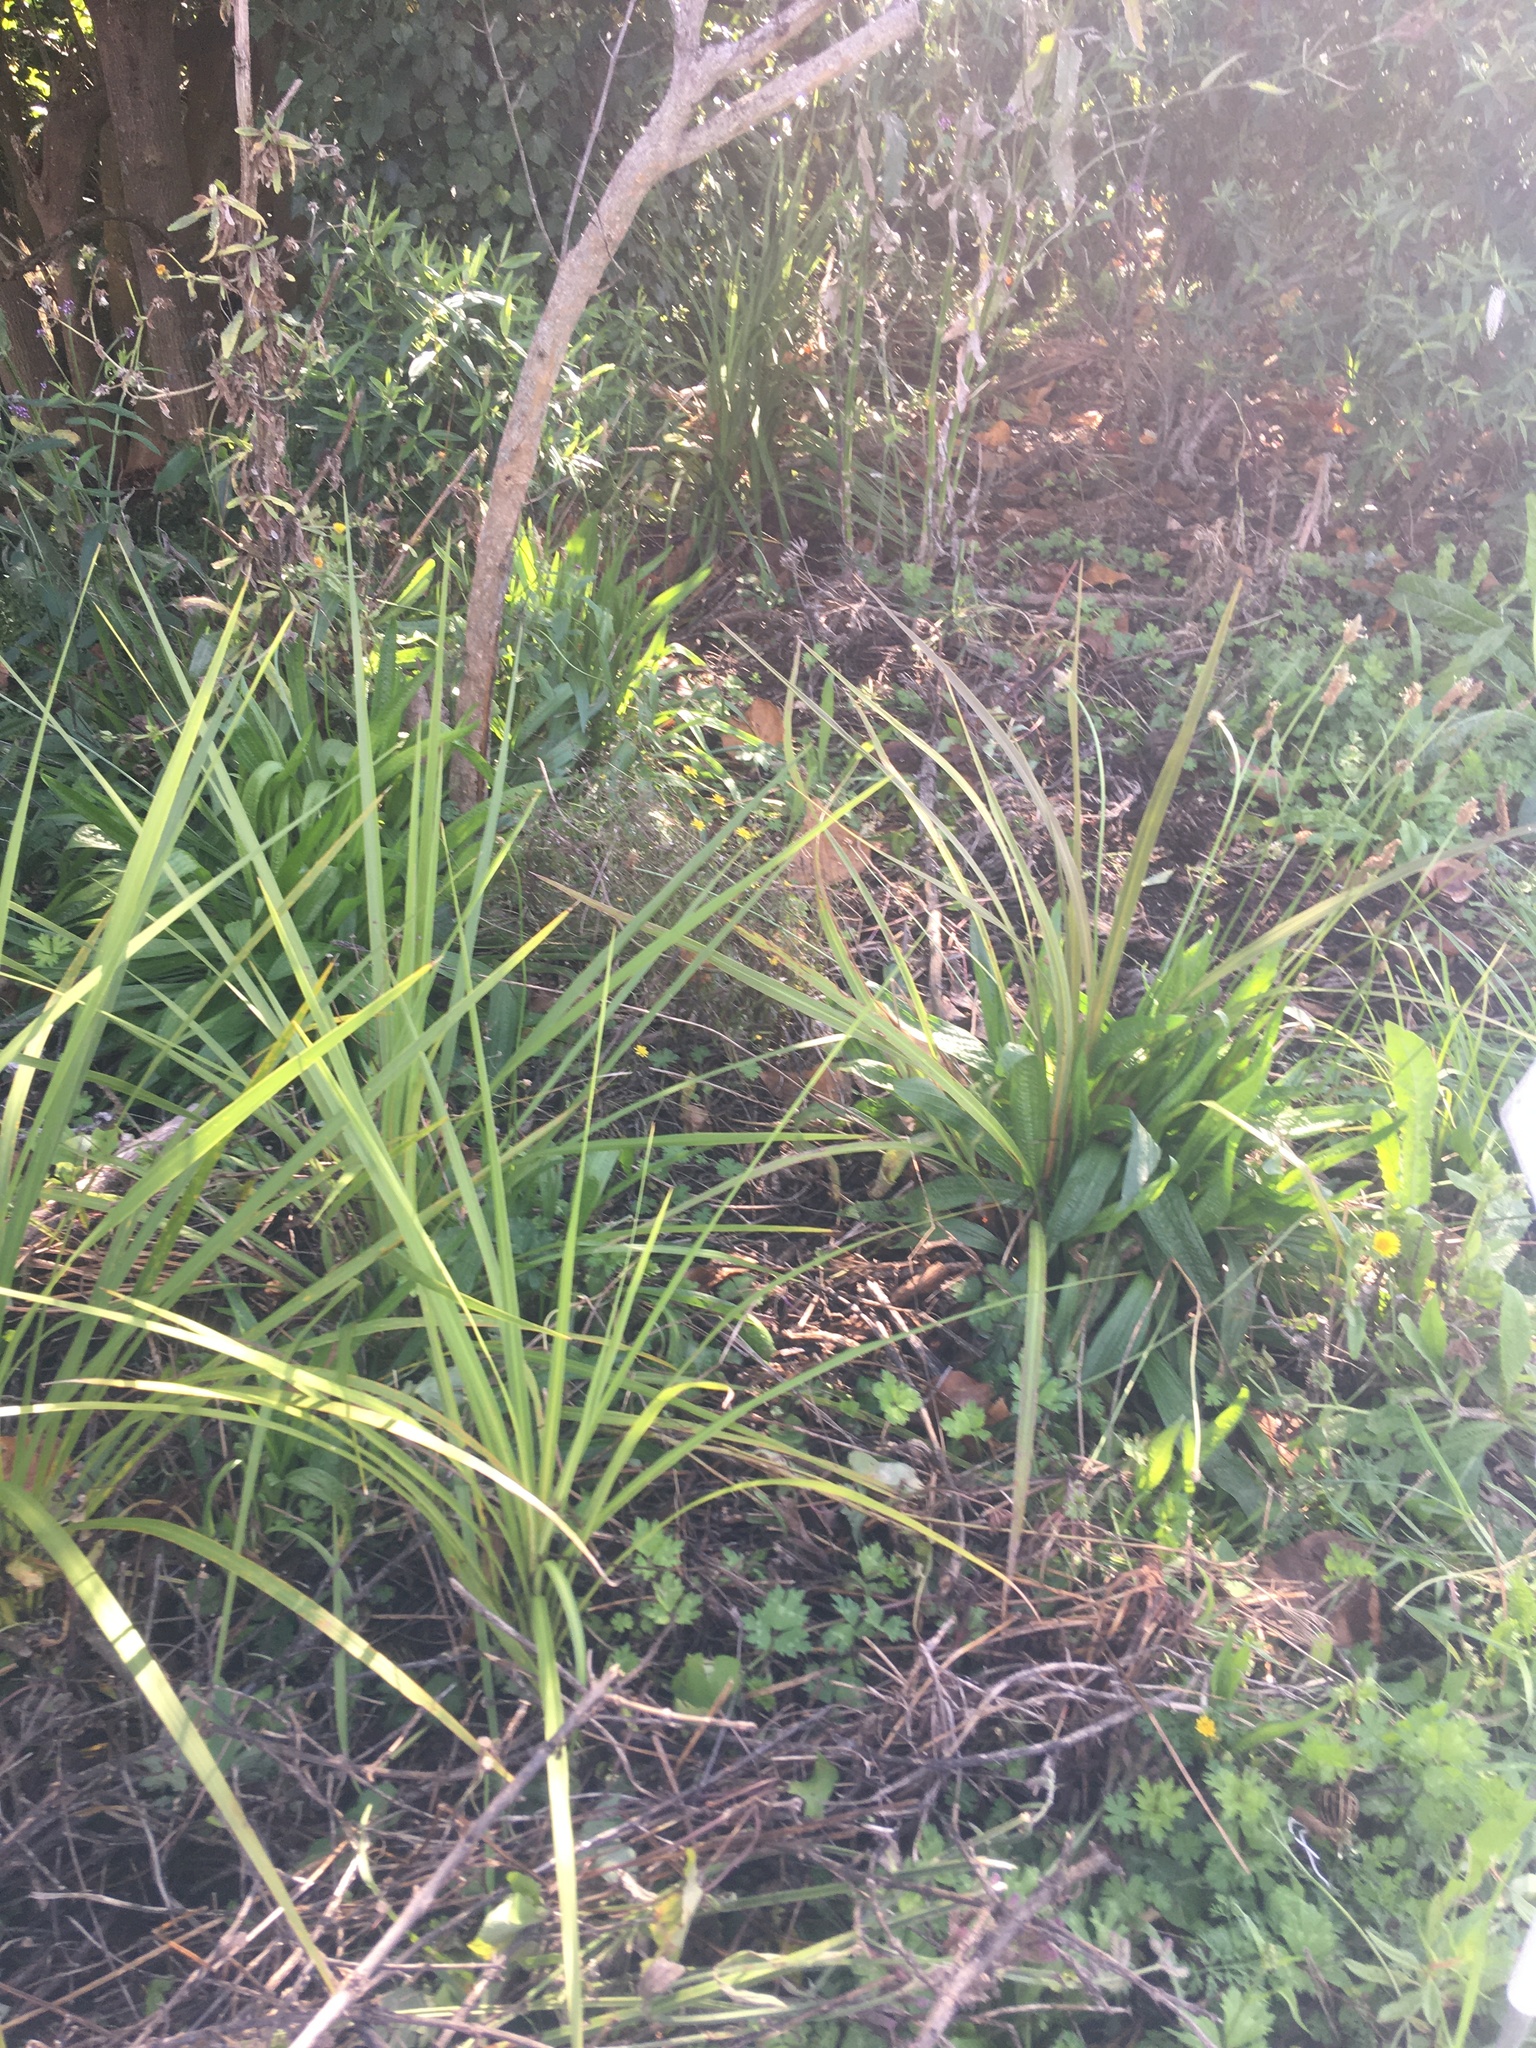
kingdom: Plantae
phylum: Tracheophyta
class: Liliopsida
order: Asparagales
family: Asparagaceae
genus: Cordyline
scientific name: Cordyline australis
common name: Cabbage-palm
